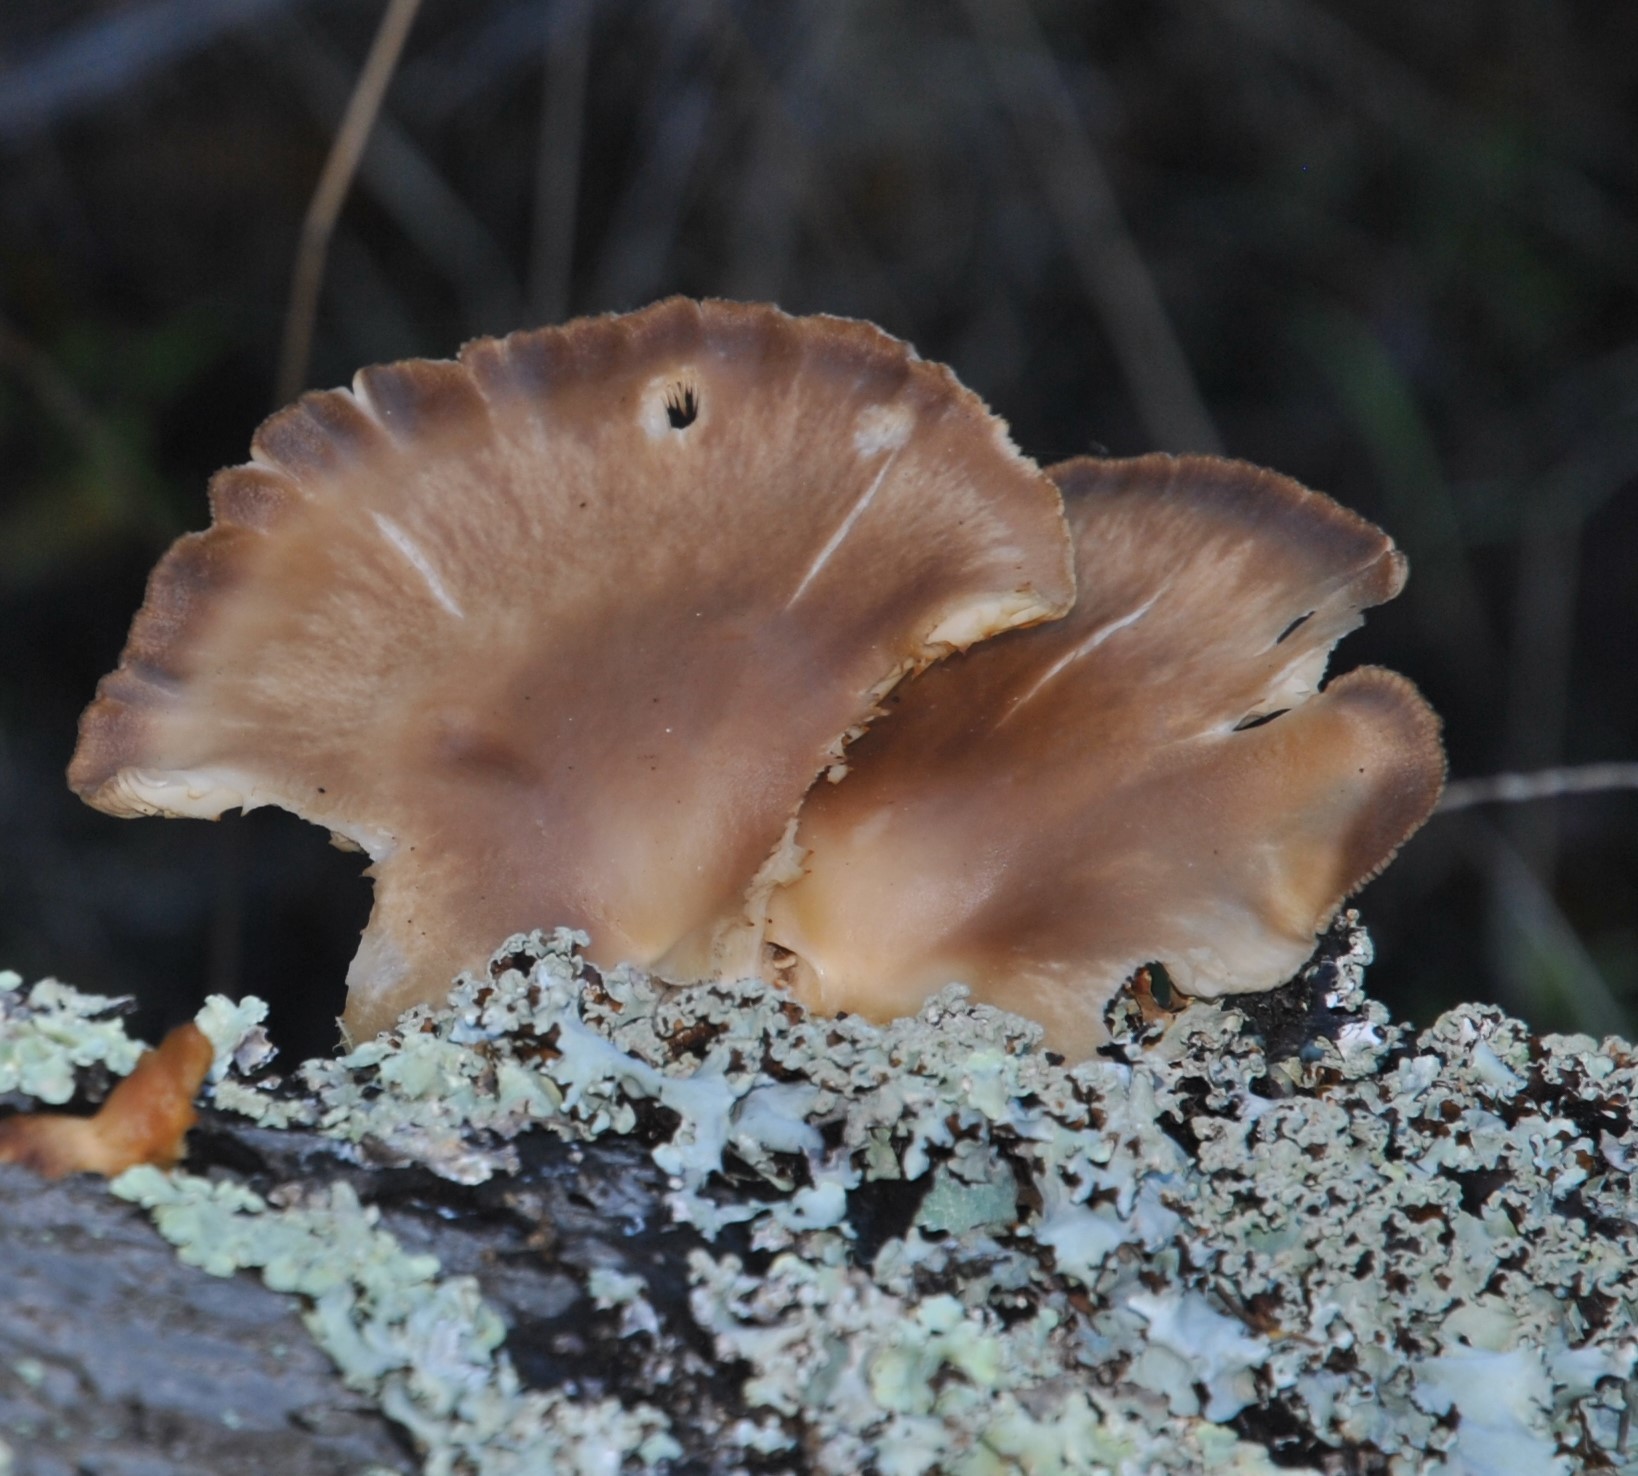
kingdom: Fungi
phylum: Basidiomycota
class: Agaricomycetes
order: Agaricales
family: Pleurotaceae
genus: Pleurotus
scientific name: Pleurotus ostreatus
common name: Oyster mushroom
